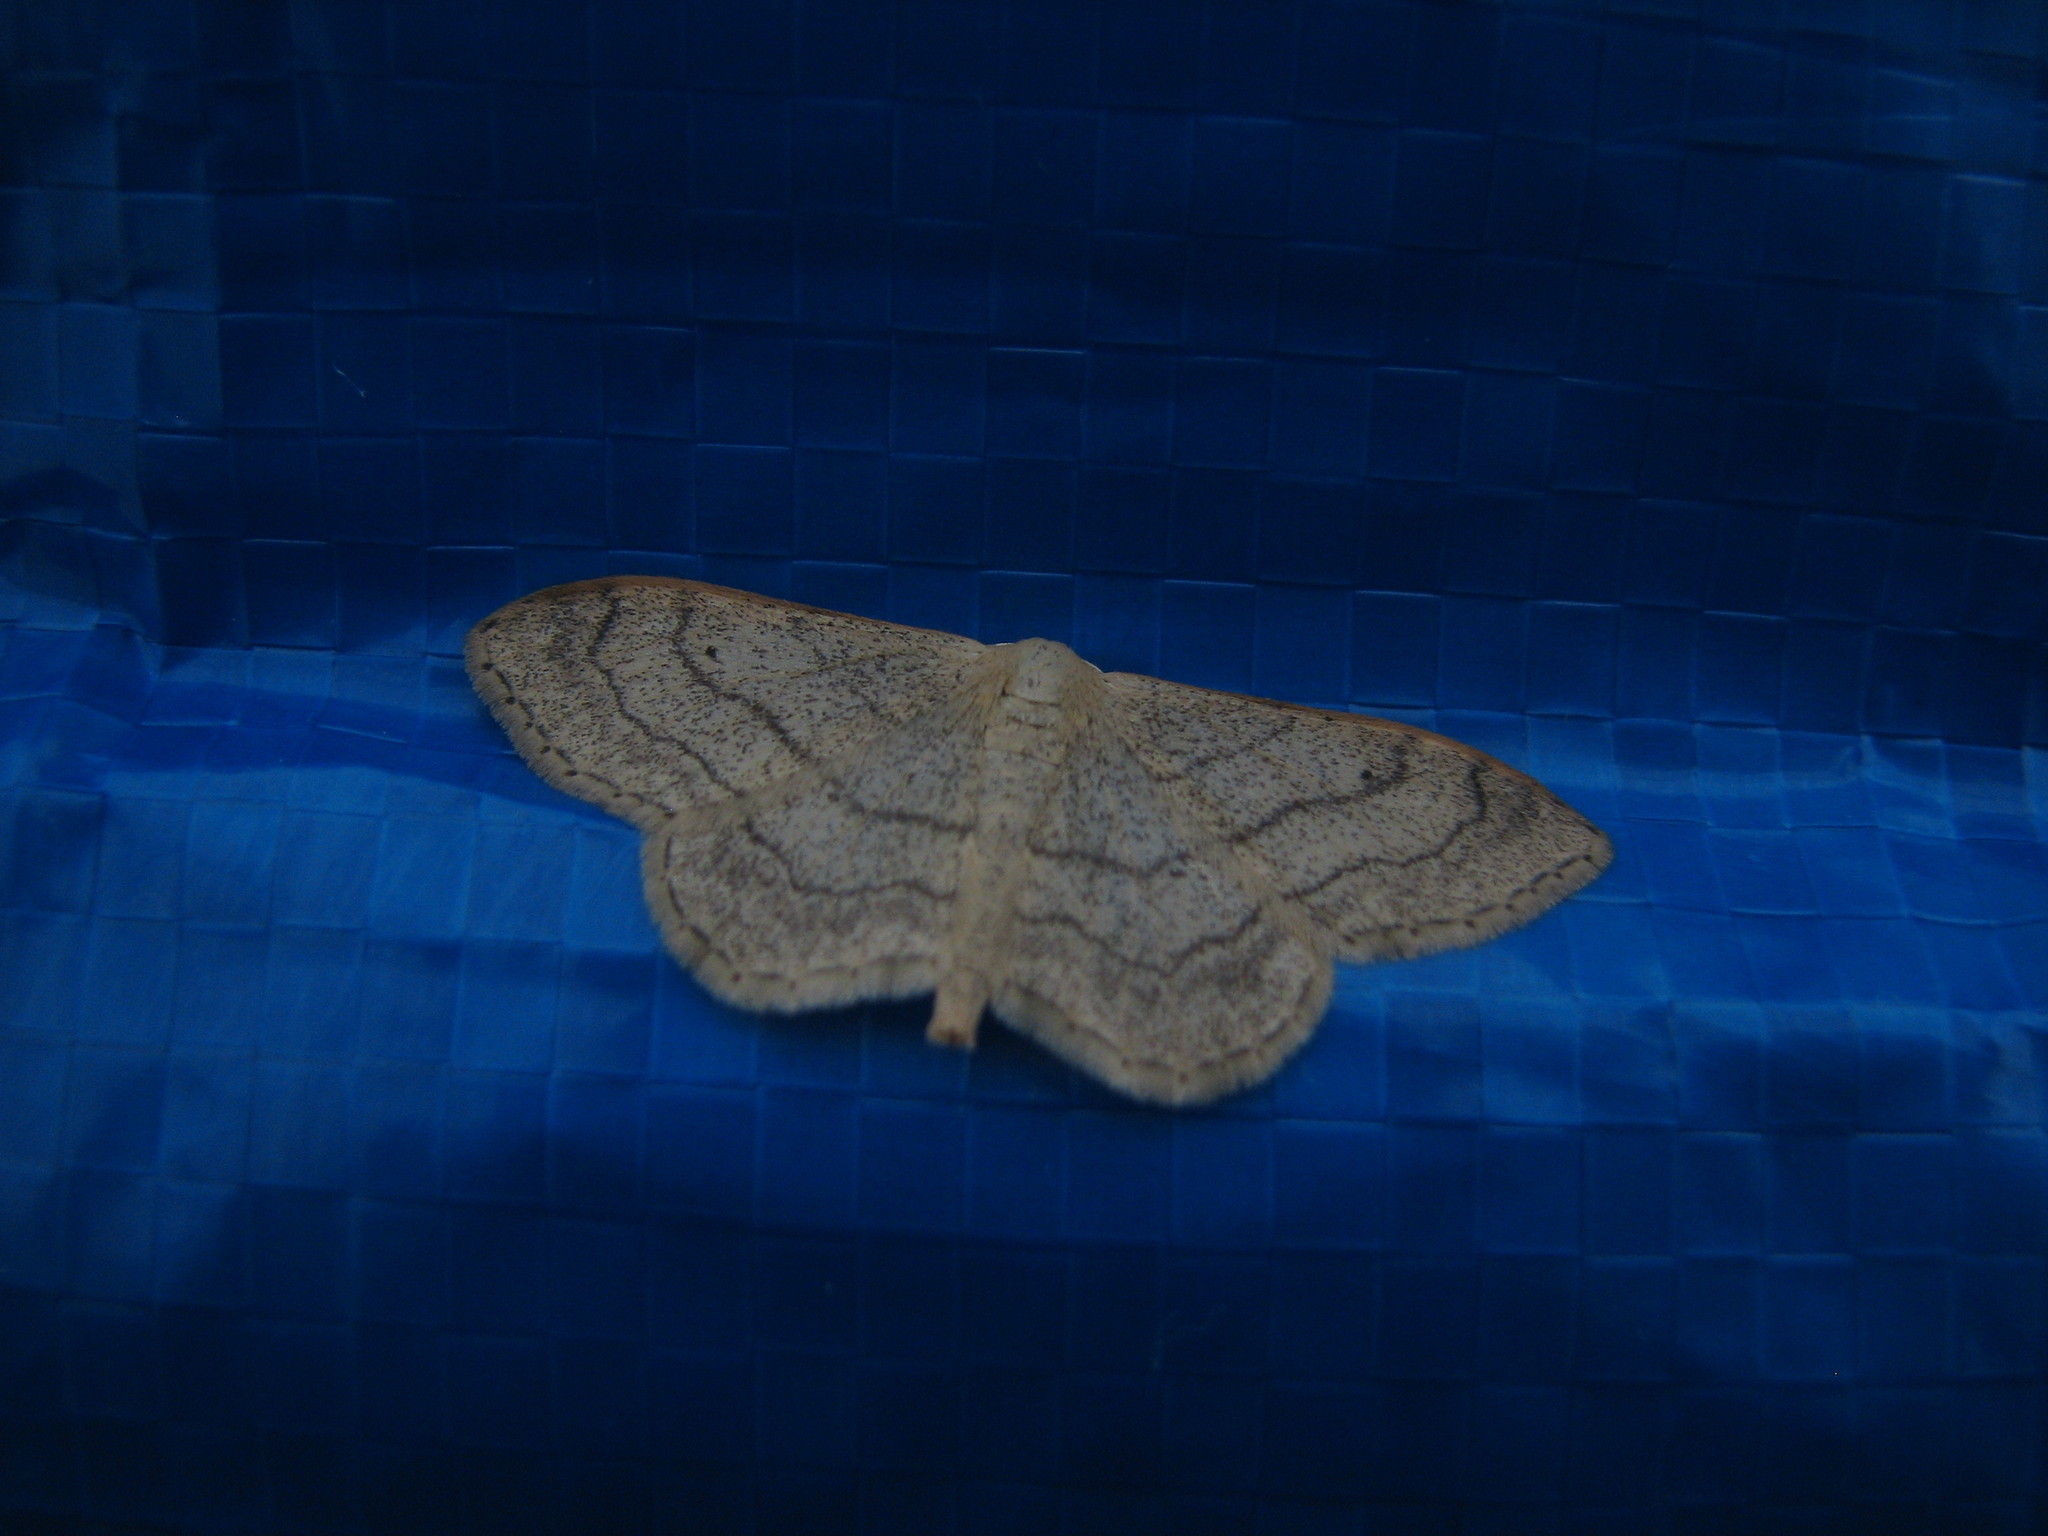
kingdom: Animalia
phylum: Arthropoda
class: Insecta
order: Lepidoptera
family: Geometridae
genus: Idaea
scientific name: Idaea aversata
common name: Riband wave
